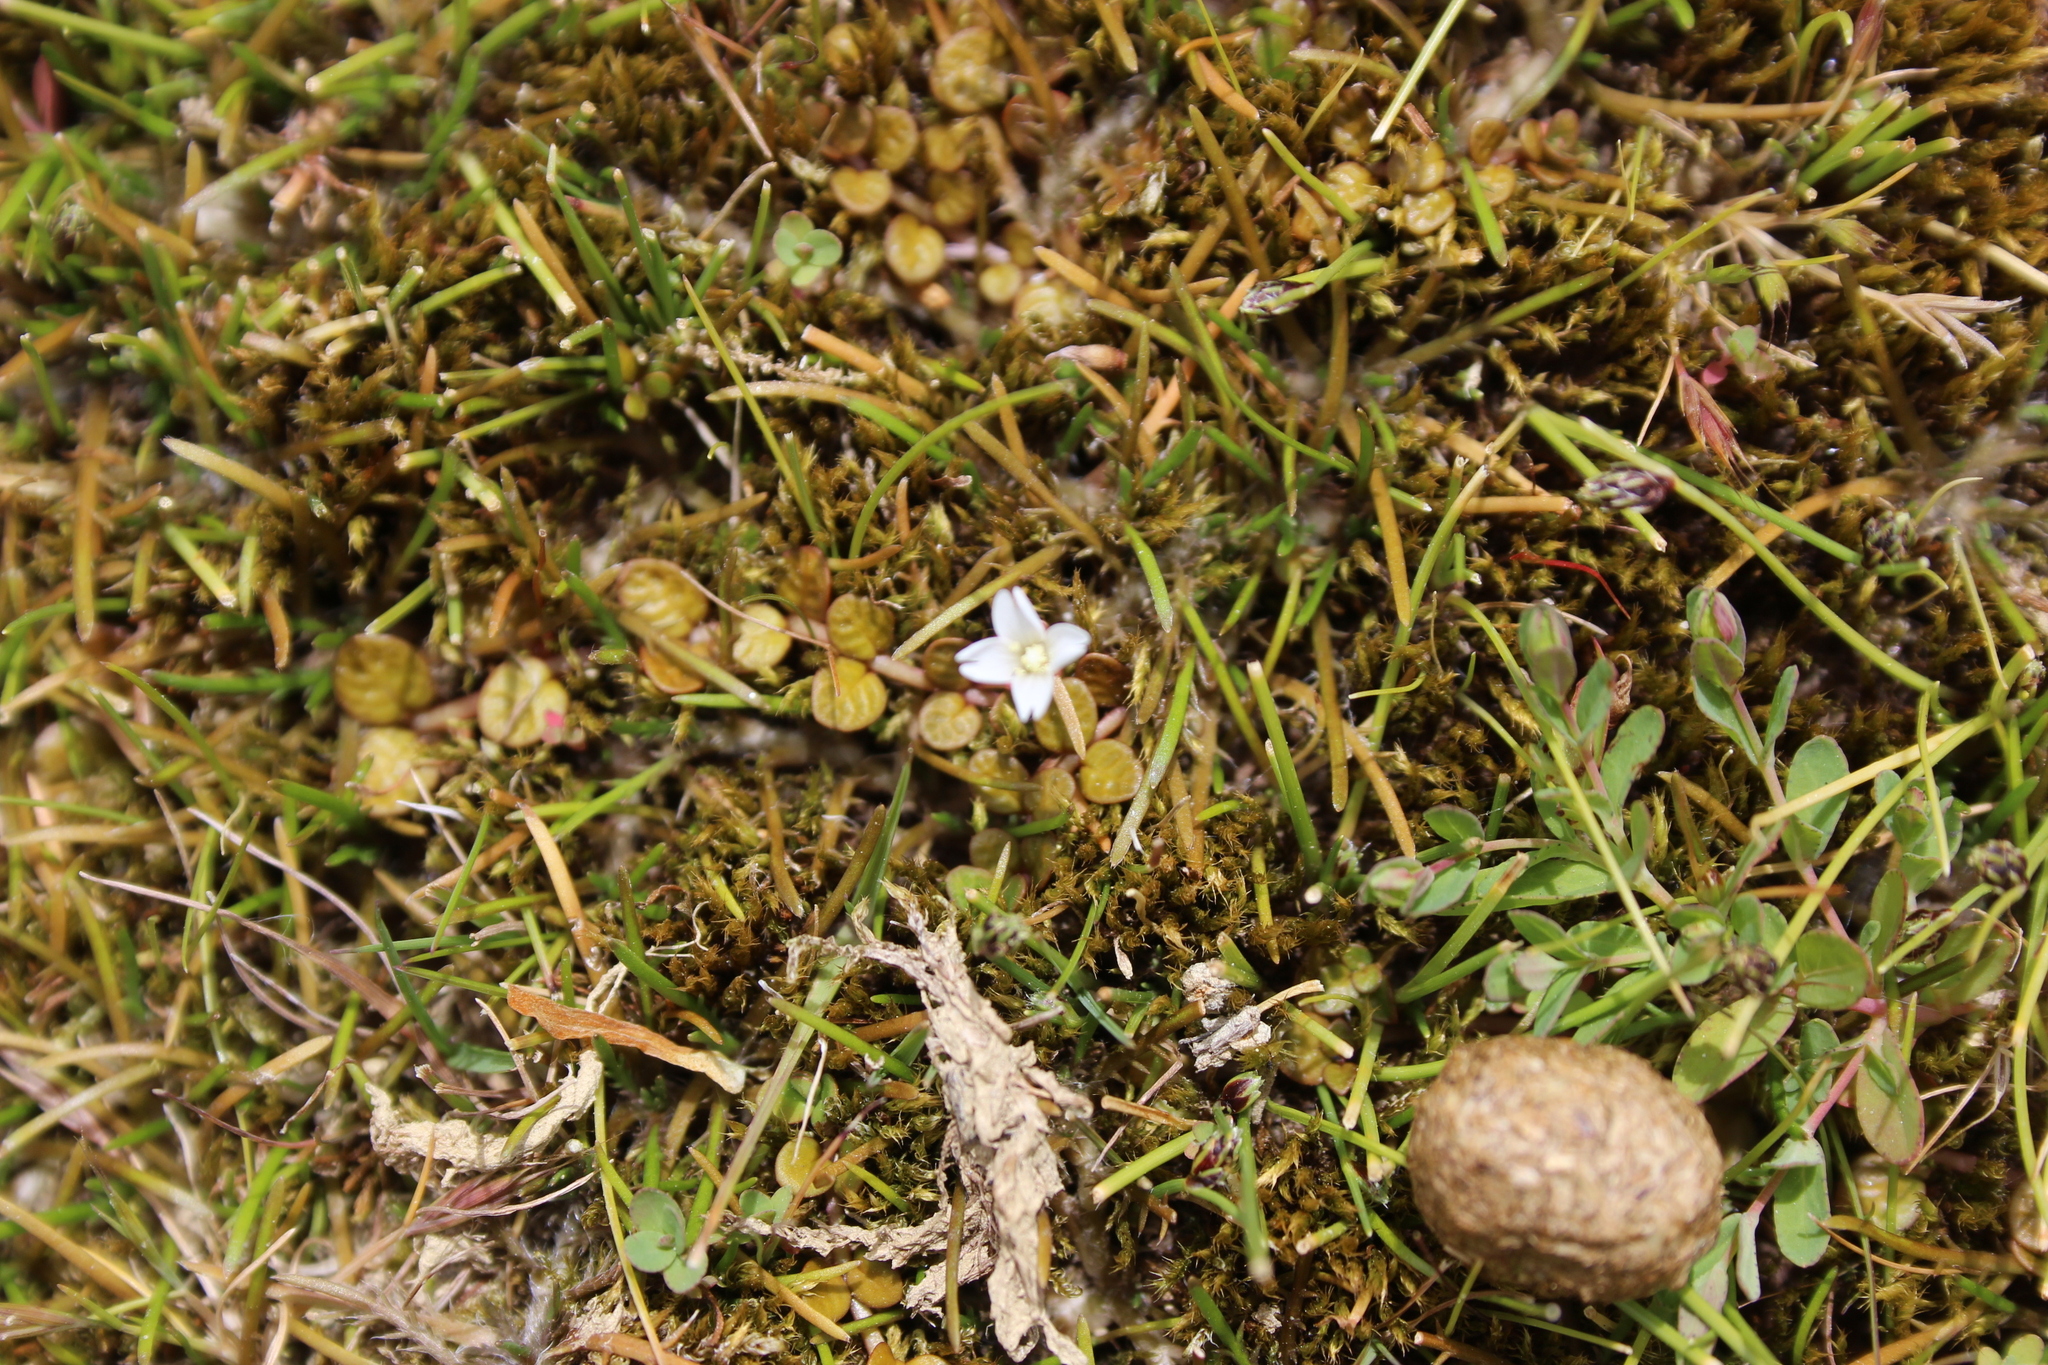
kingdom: Plantae
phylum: Tracheophyta
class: Magnoliopsida
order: Myrtales
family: Onagraceae
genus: Epilobium
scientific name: Epilobium komarovianum
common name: Bronzy willowherb
